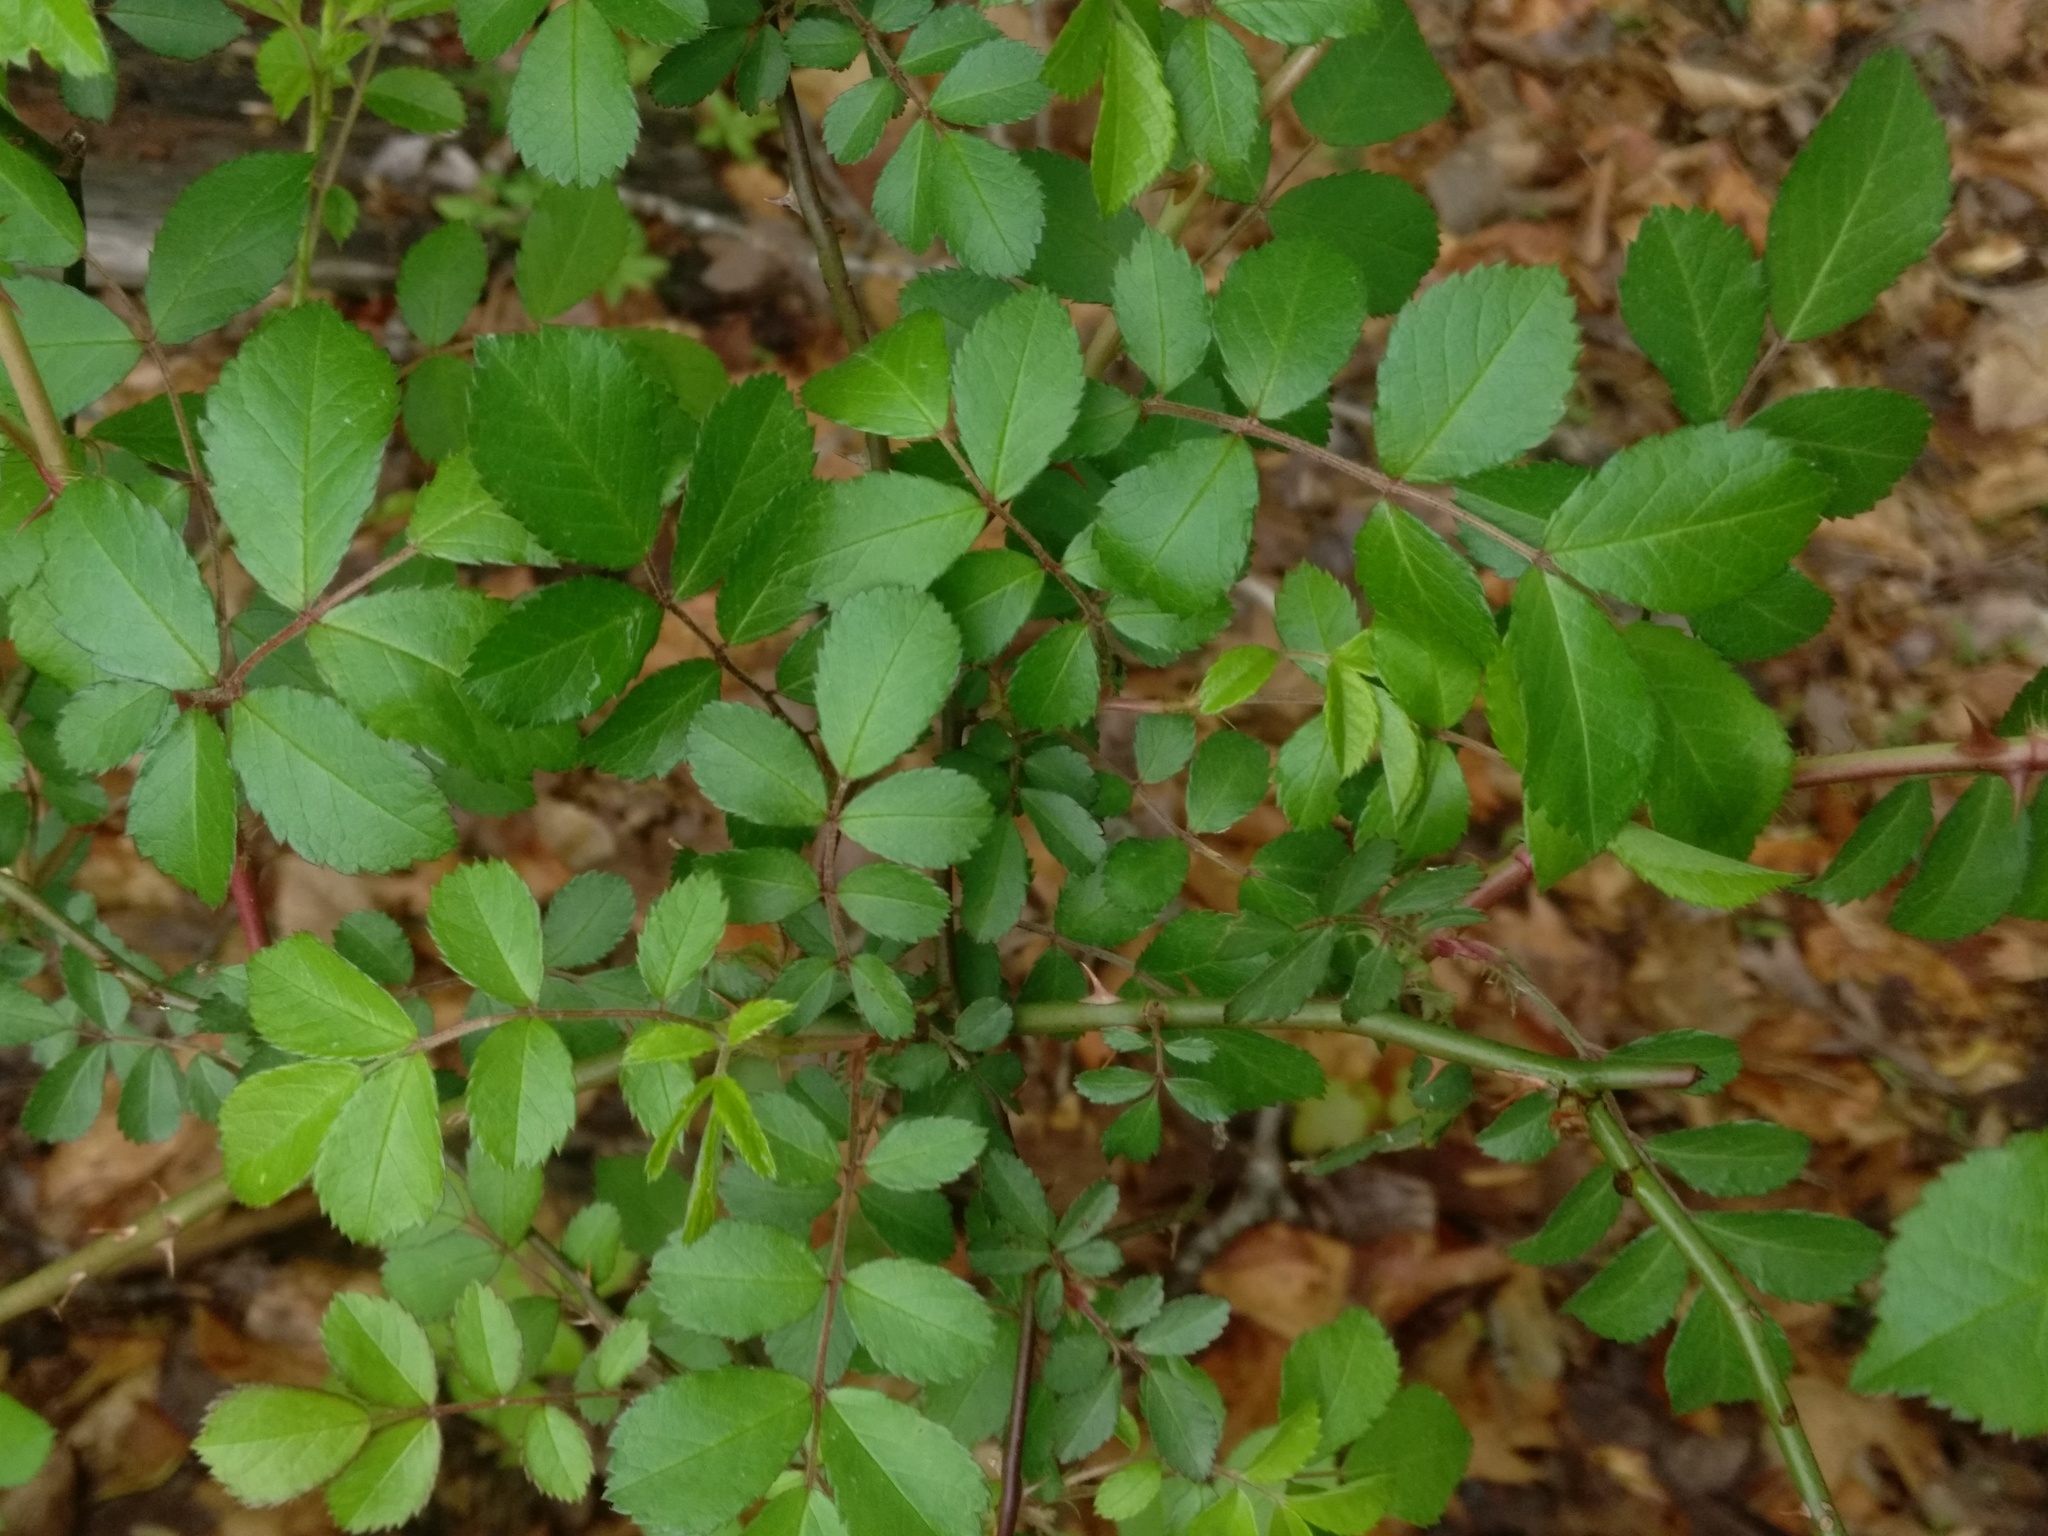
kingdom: Plantae
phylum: Tracheophyta
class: Magnoliopsida
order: Rosales
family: Rosaceae
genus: Rosa
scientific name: Rosa multiflora
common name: Multiflora rose
